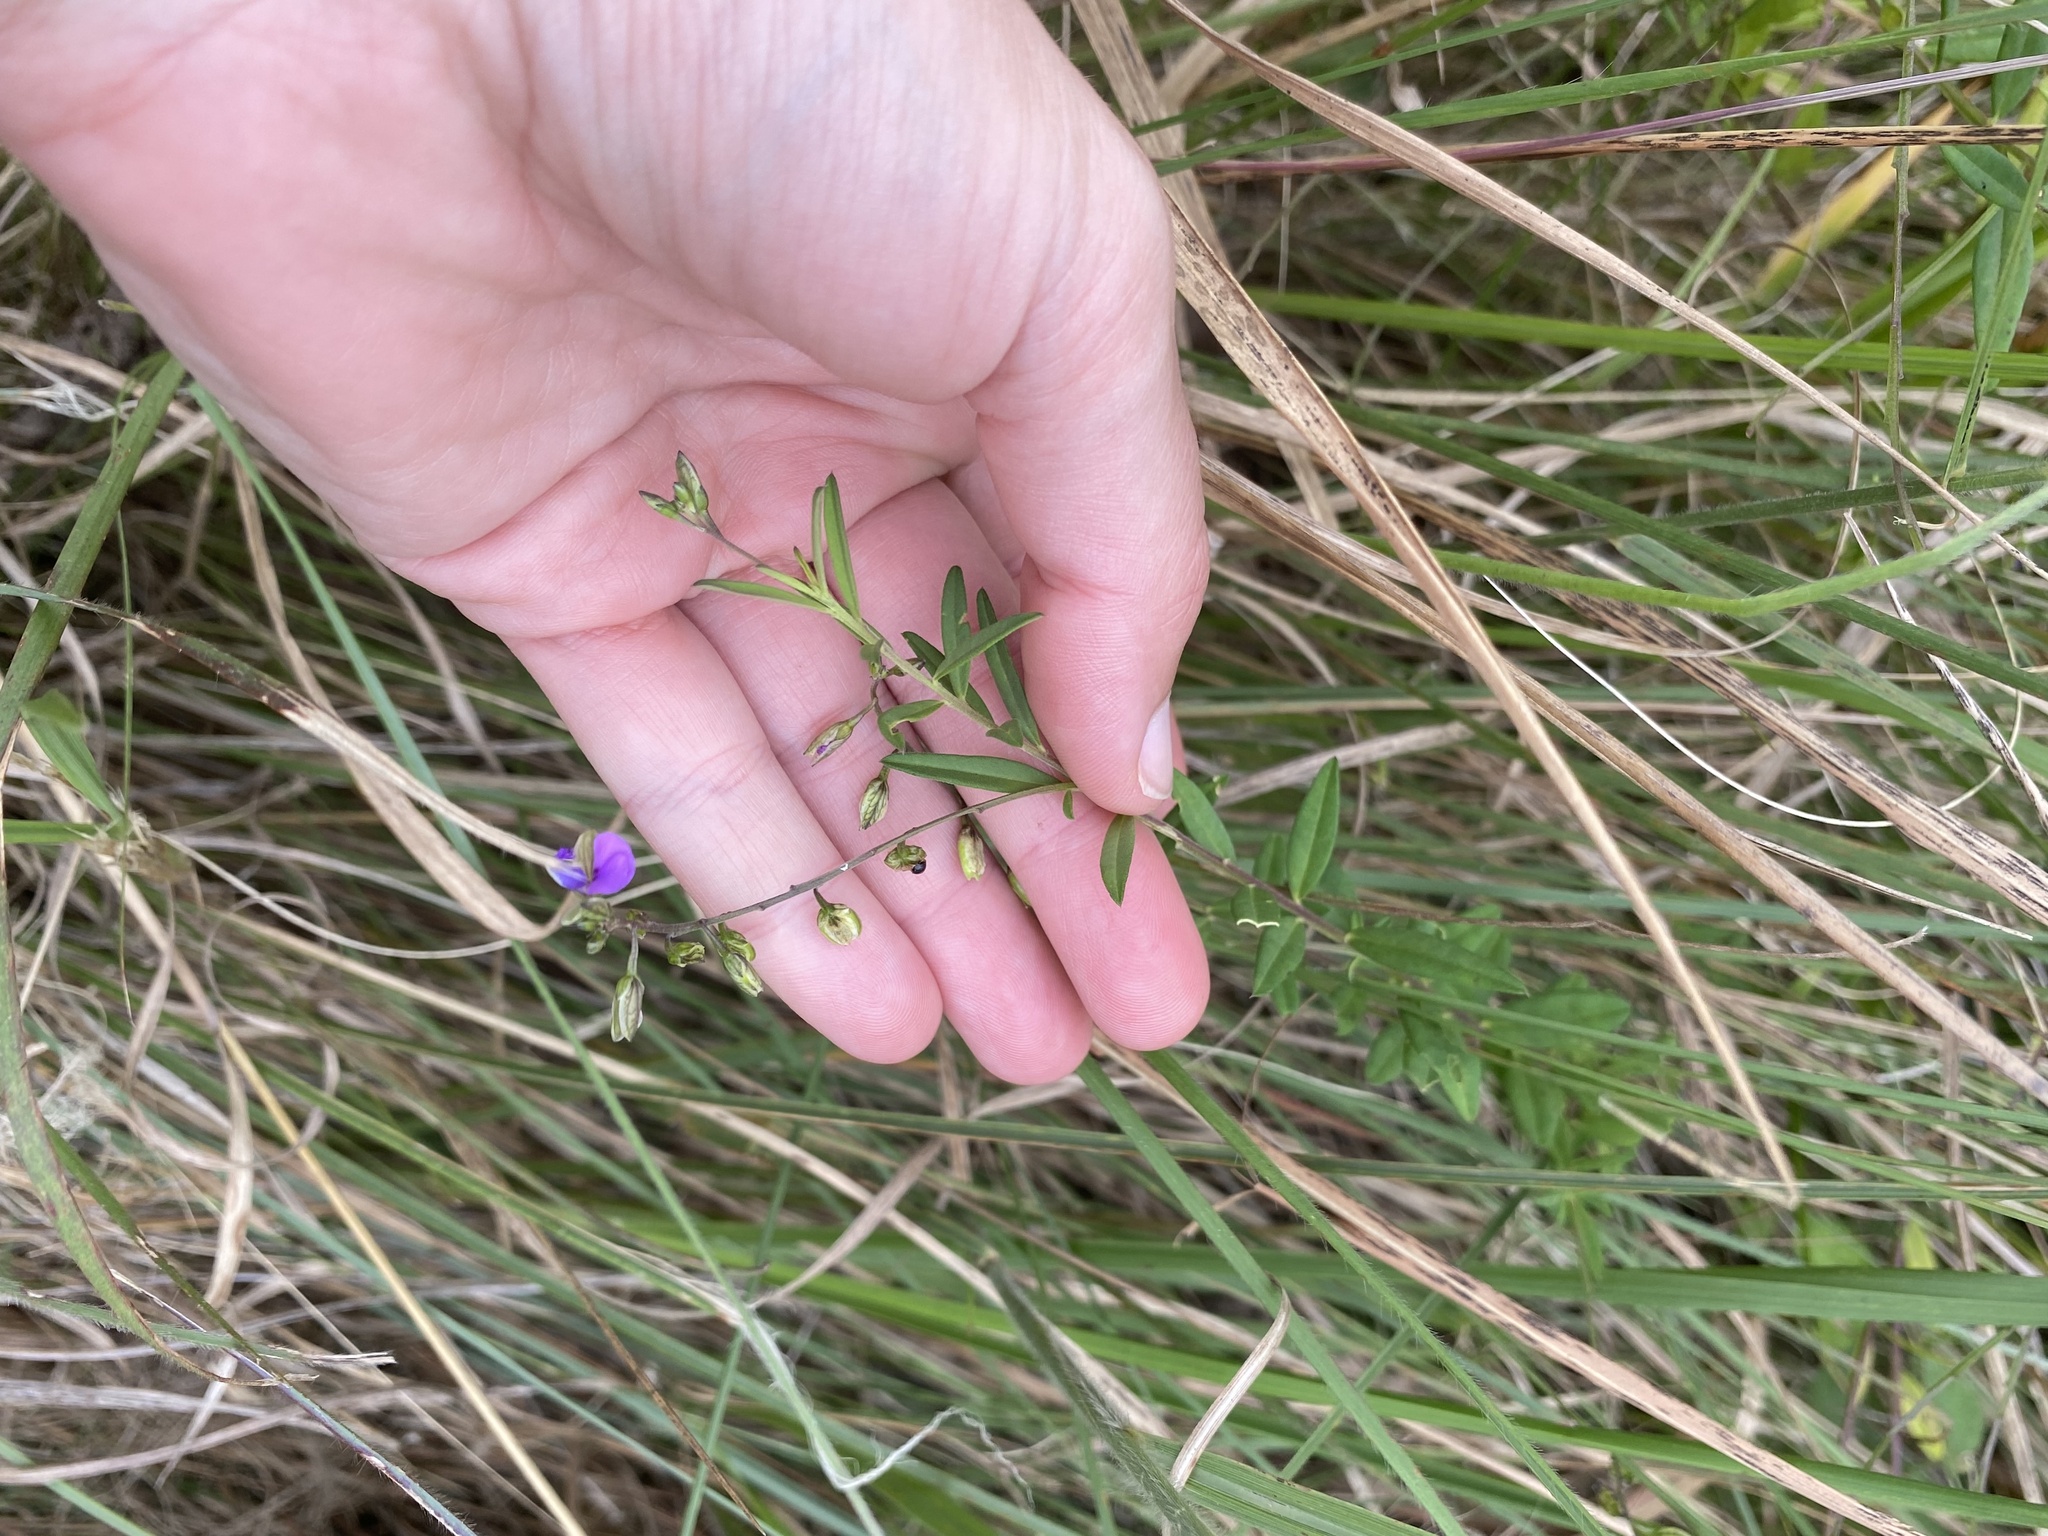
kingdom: Plantae
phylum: Tracheophyta
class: Magnoliopsida
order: Fabales
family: Polygalaceae
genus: Polygala
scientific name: Polygala serpentaria
